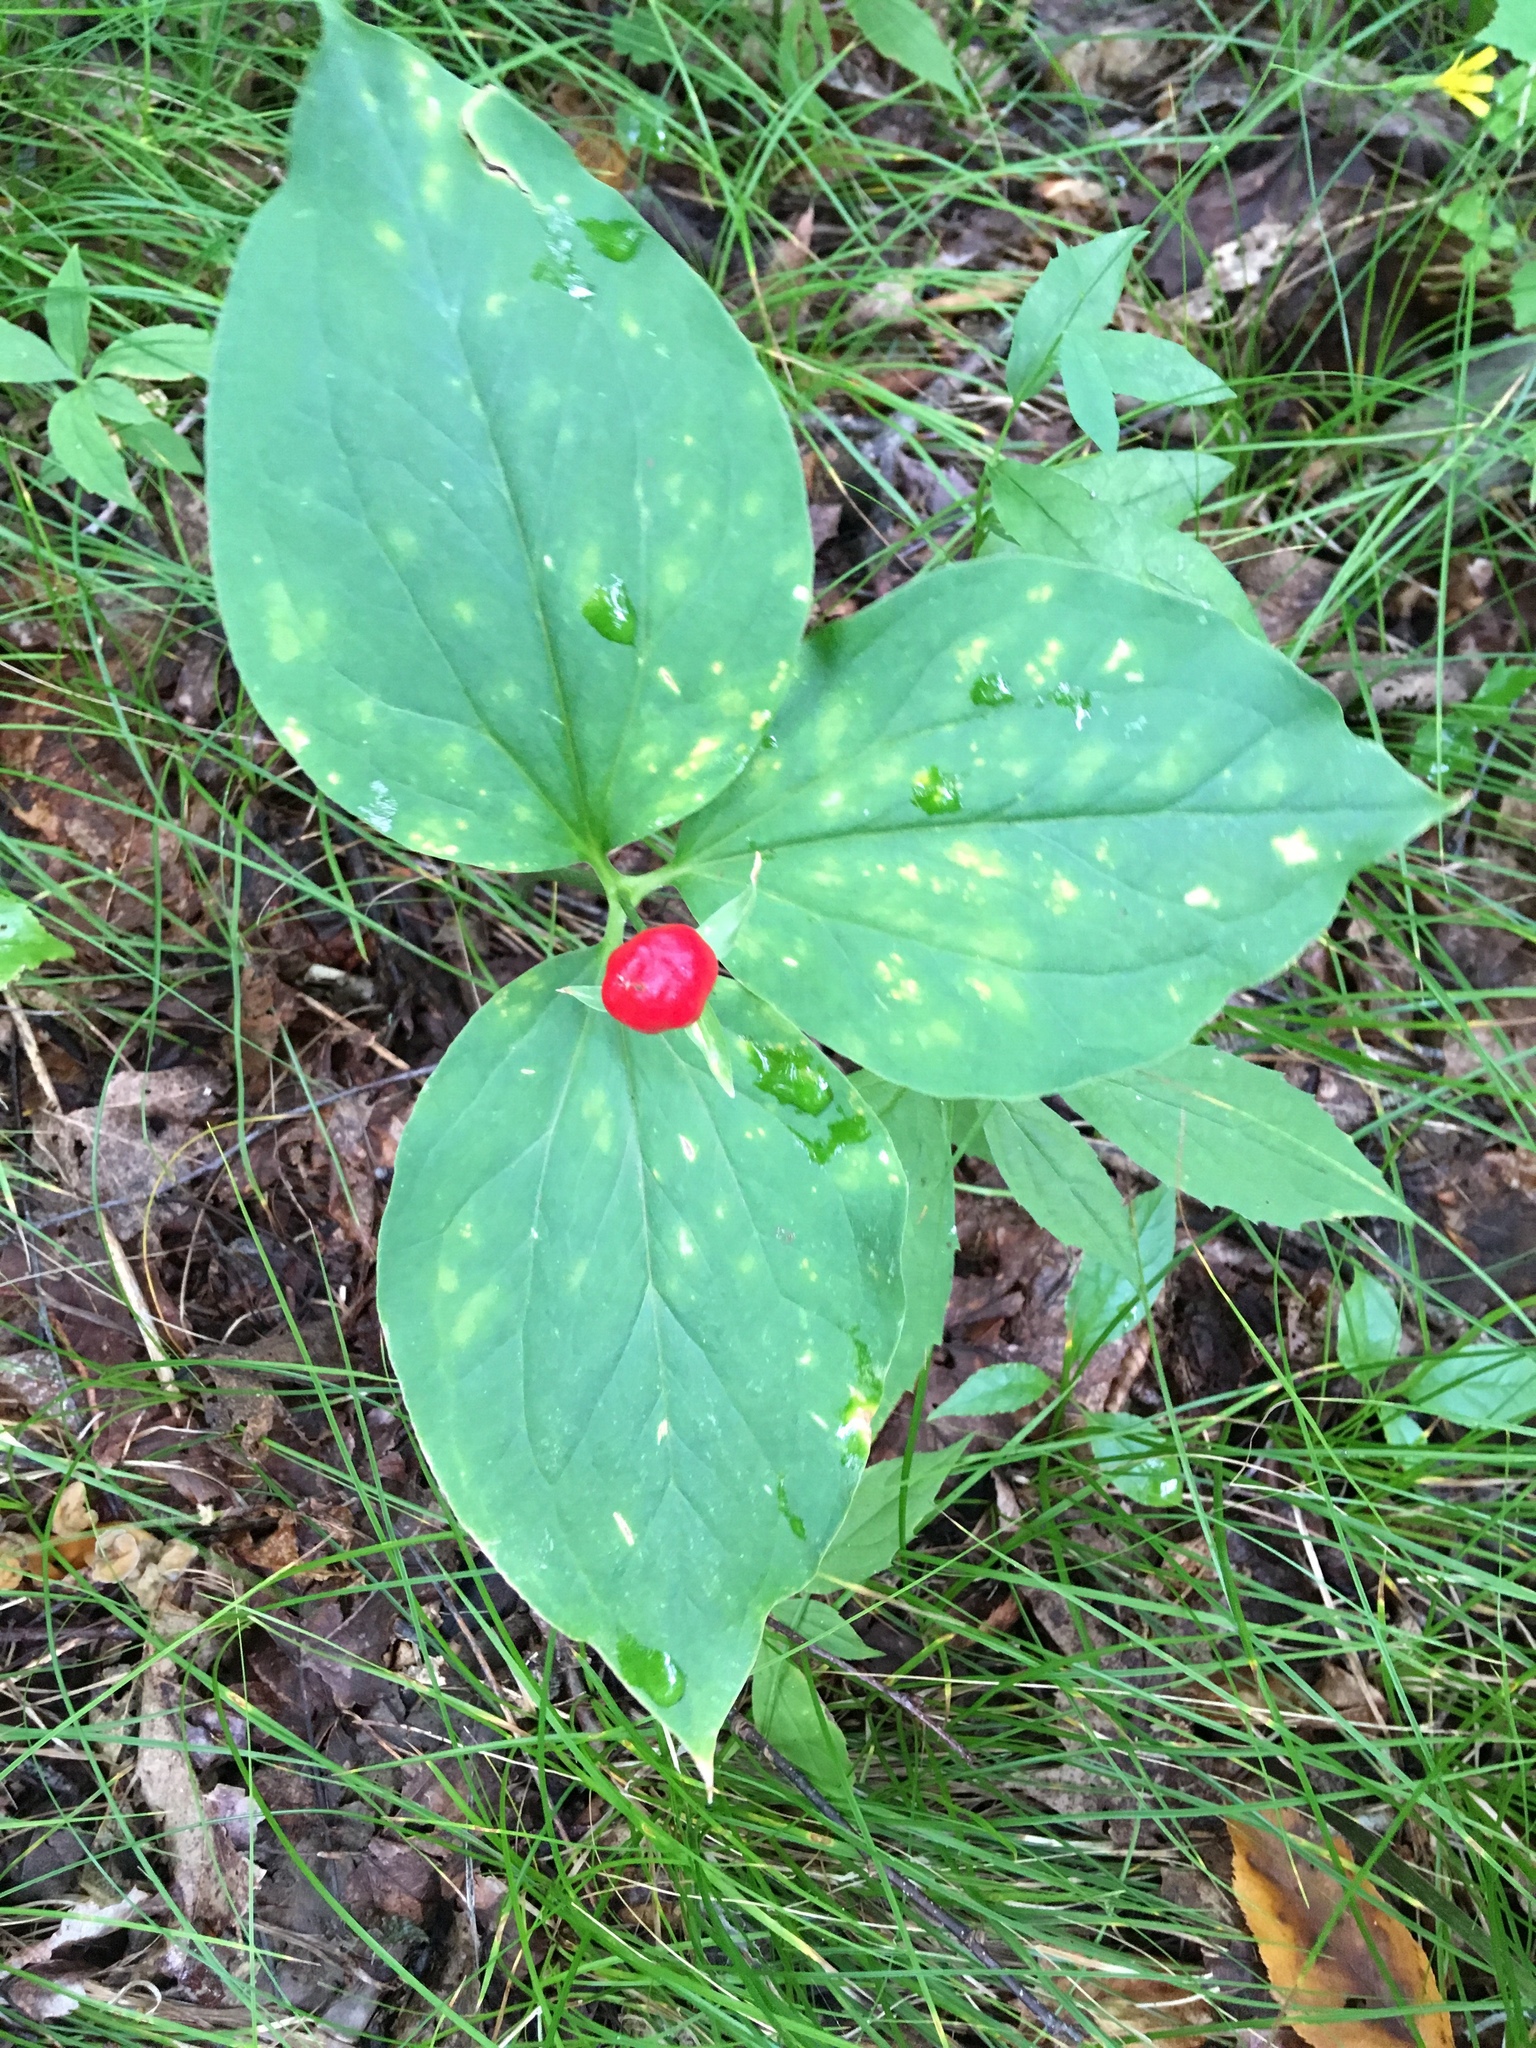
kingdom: Plantae
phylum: Tracheophyta
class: Liliopsida
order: Liliales
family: Melanthiaceae
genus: Trillium
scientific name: Trillium undulatum
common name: Paint trillium
